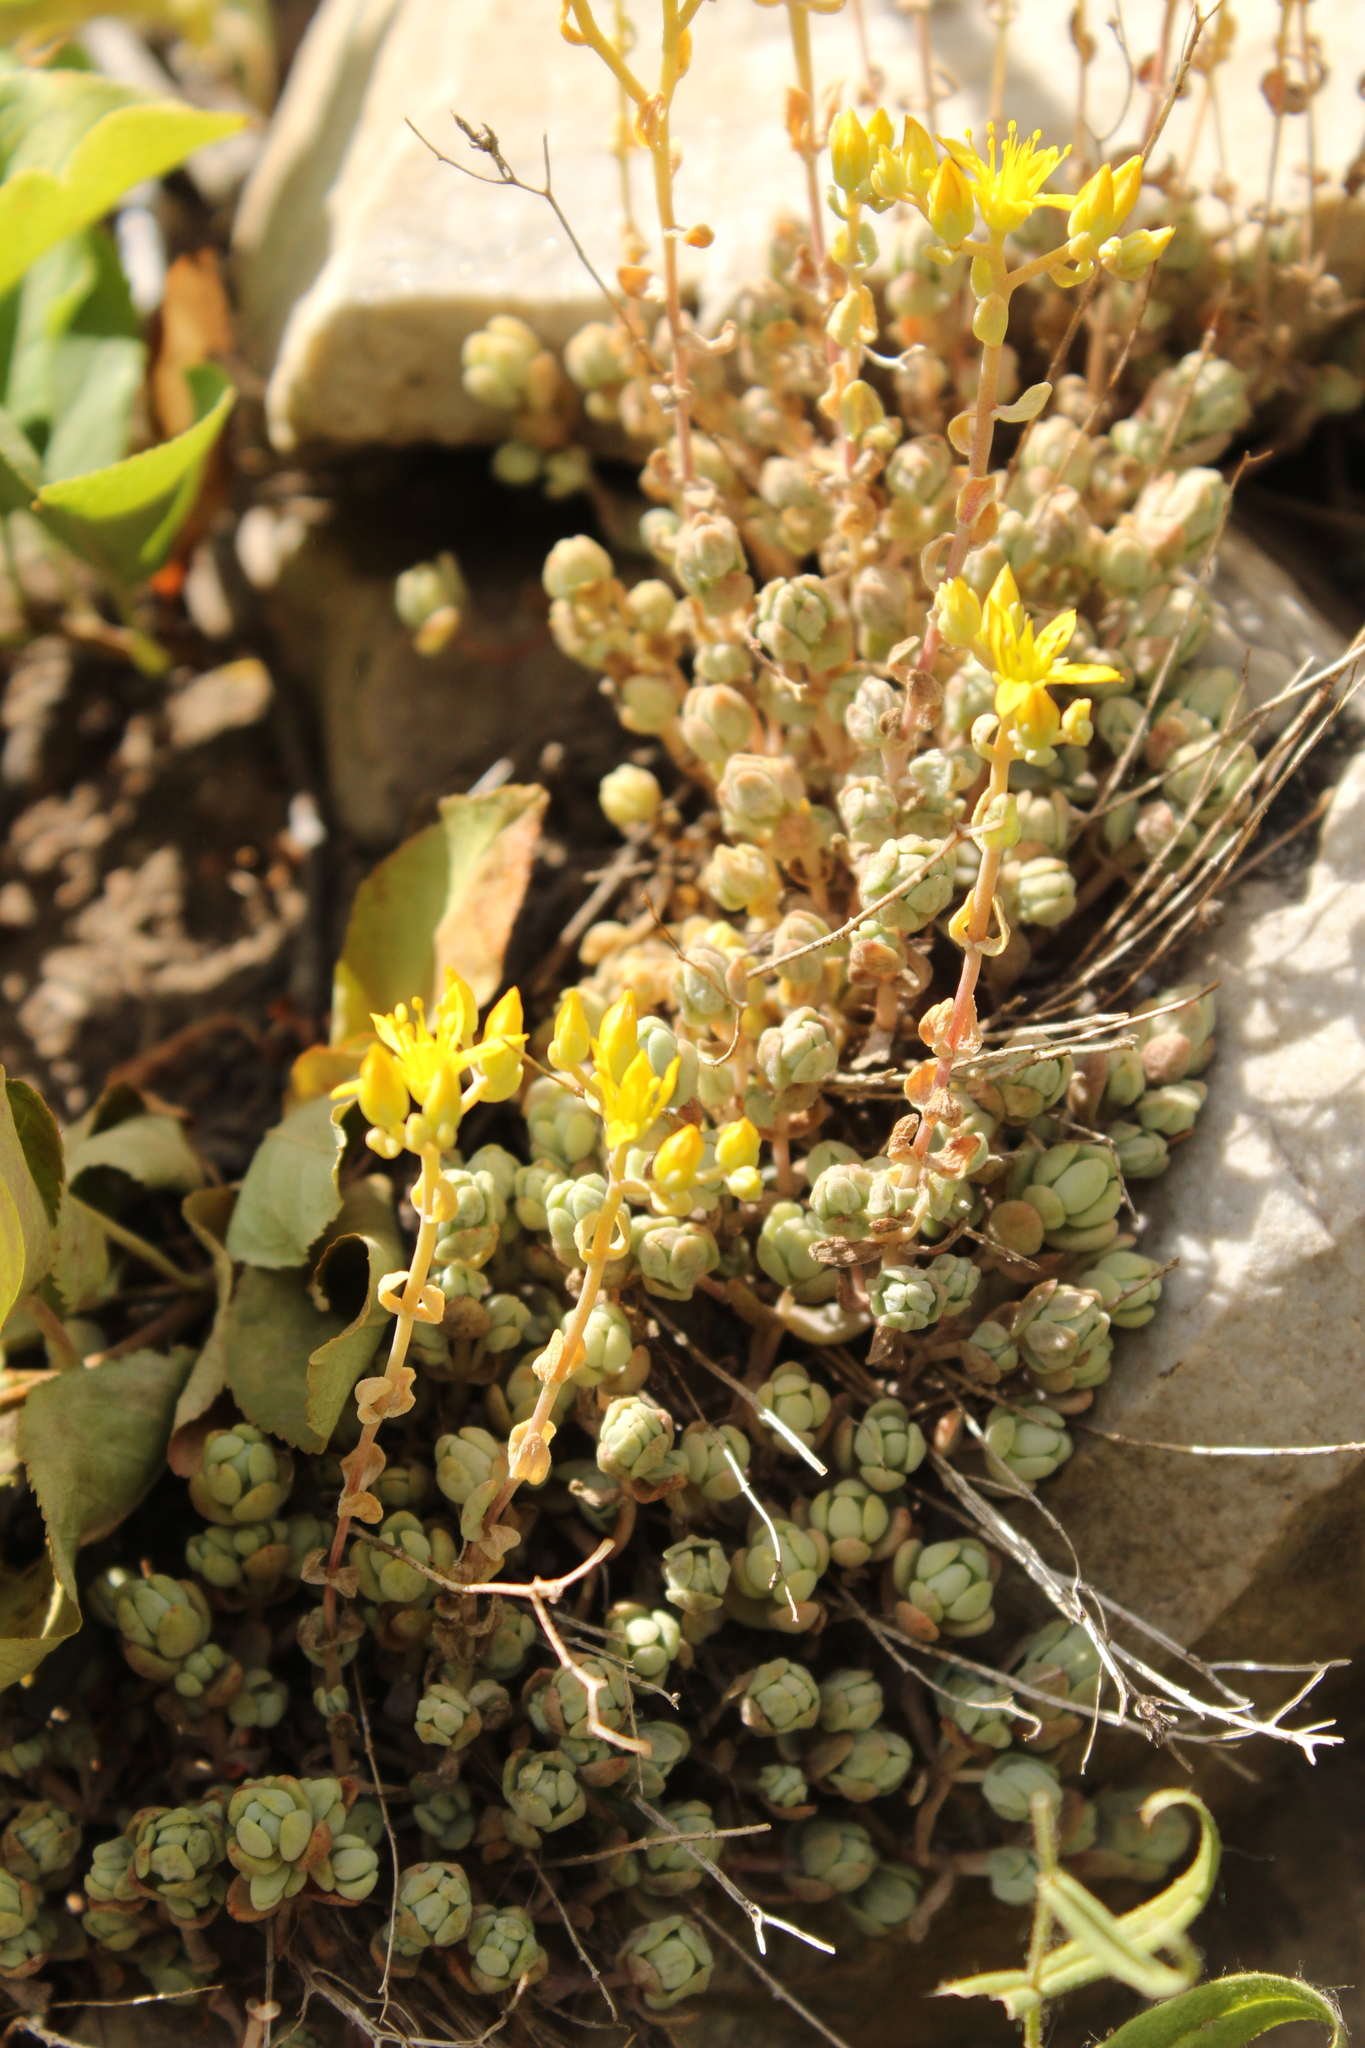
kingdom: Plantae
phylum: Tracheophyta
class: Magnoliopsida
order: Saxifragales
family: Crassulaceae
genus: Sedum
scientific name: Sedum debile
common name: Weak-stem stonecrop
